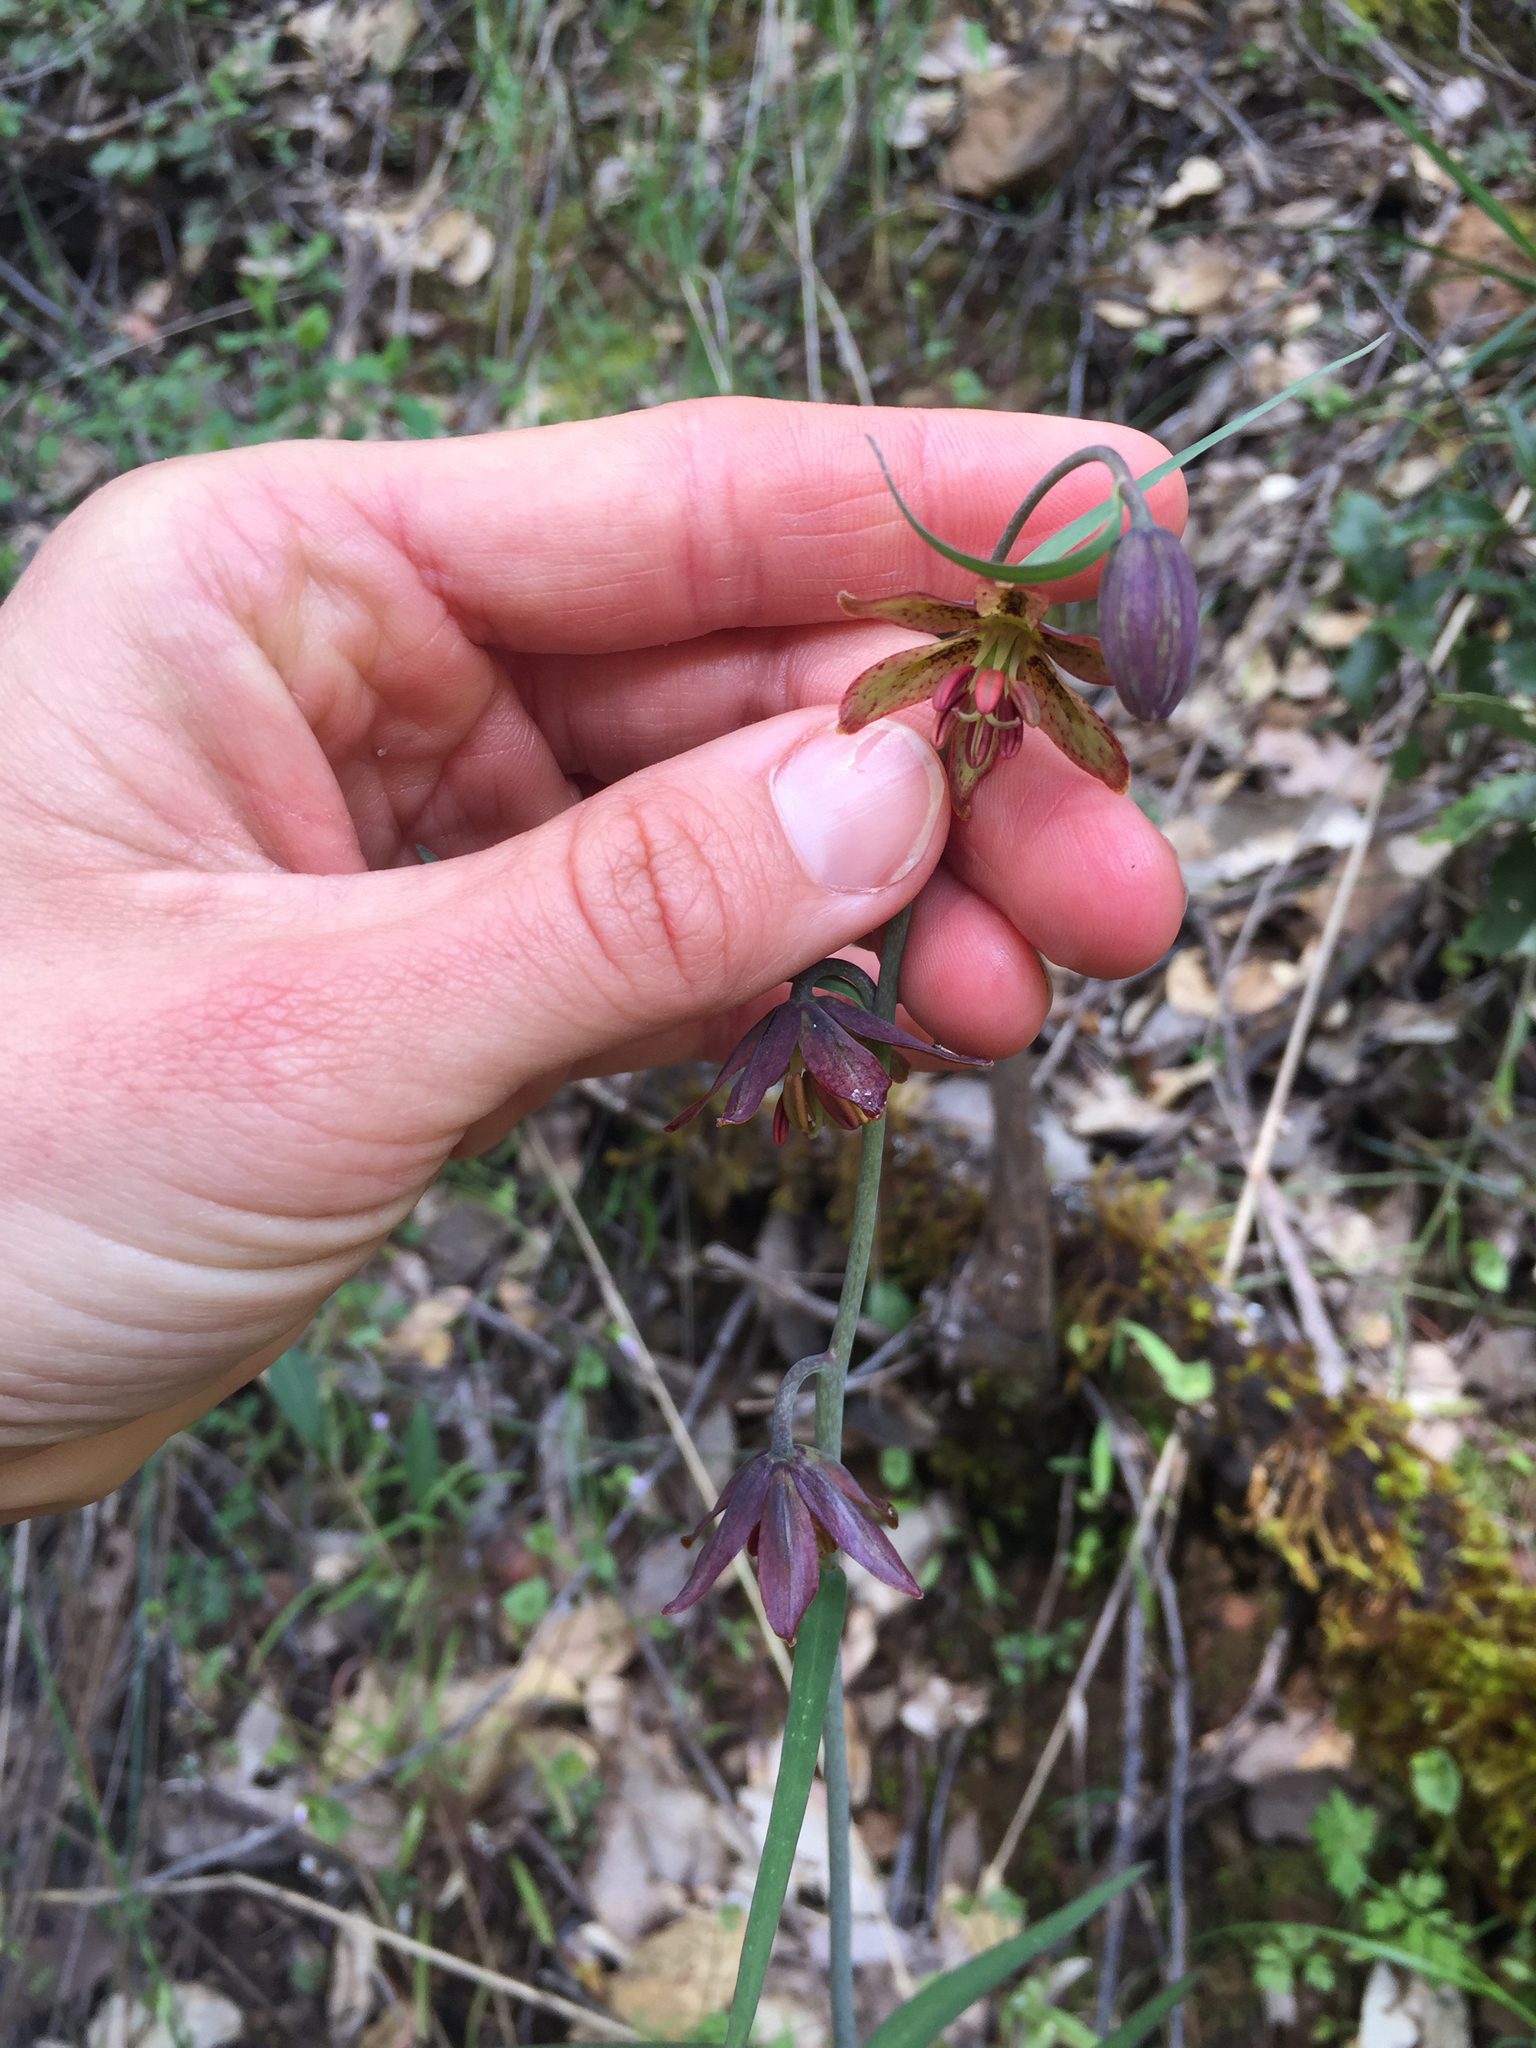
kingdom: Plantae
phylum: Tracheophyta
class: Liliopsida
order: Liliales
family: Liliaceae
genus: Fritillaria
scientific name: Fritillaria micrantha
